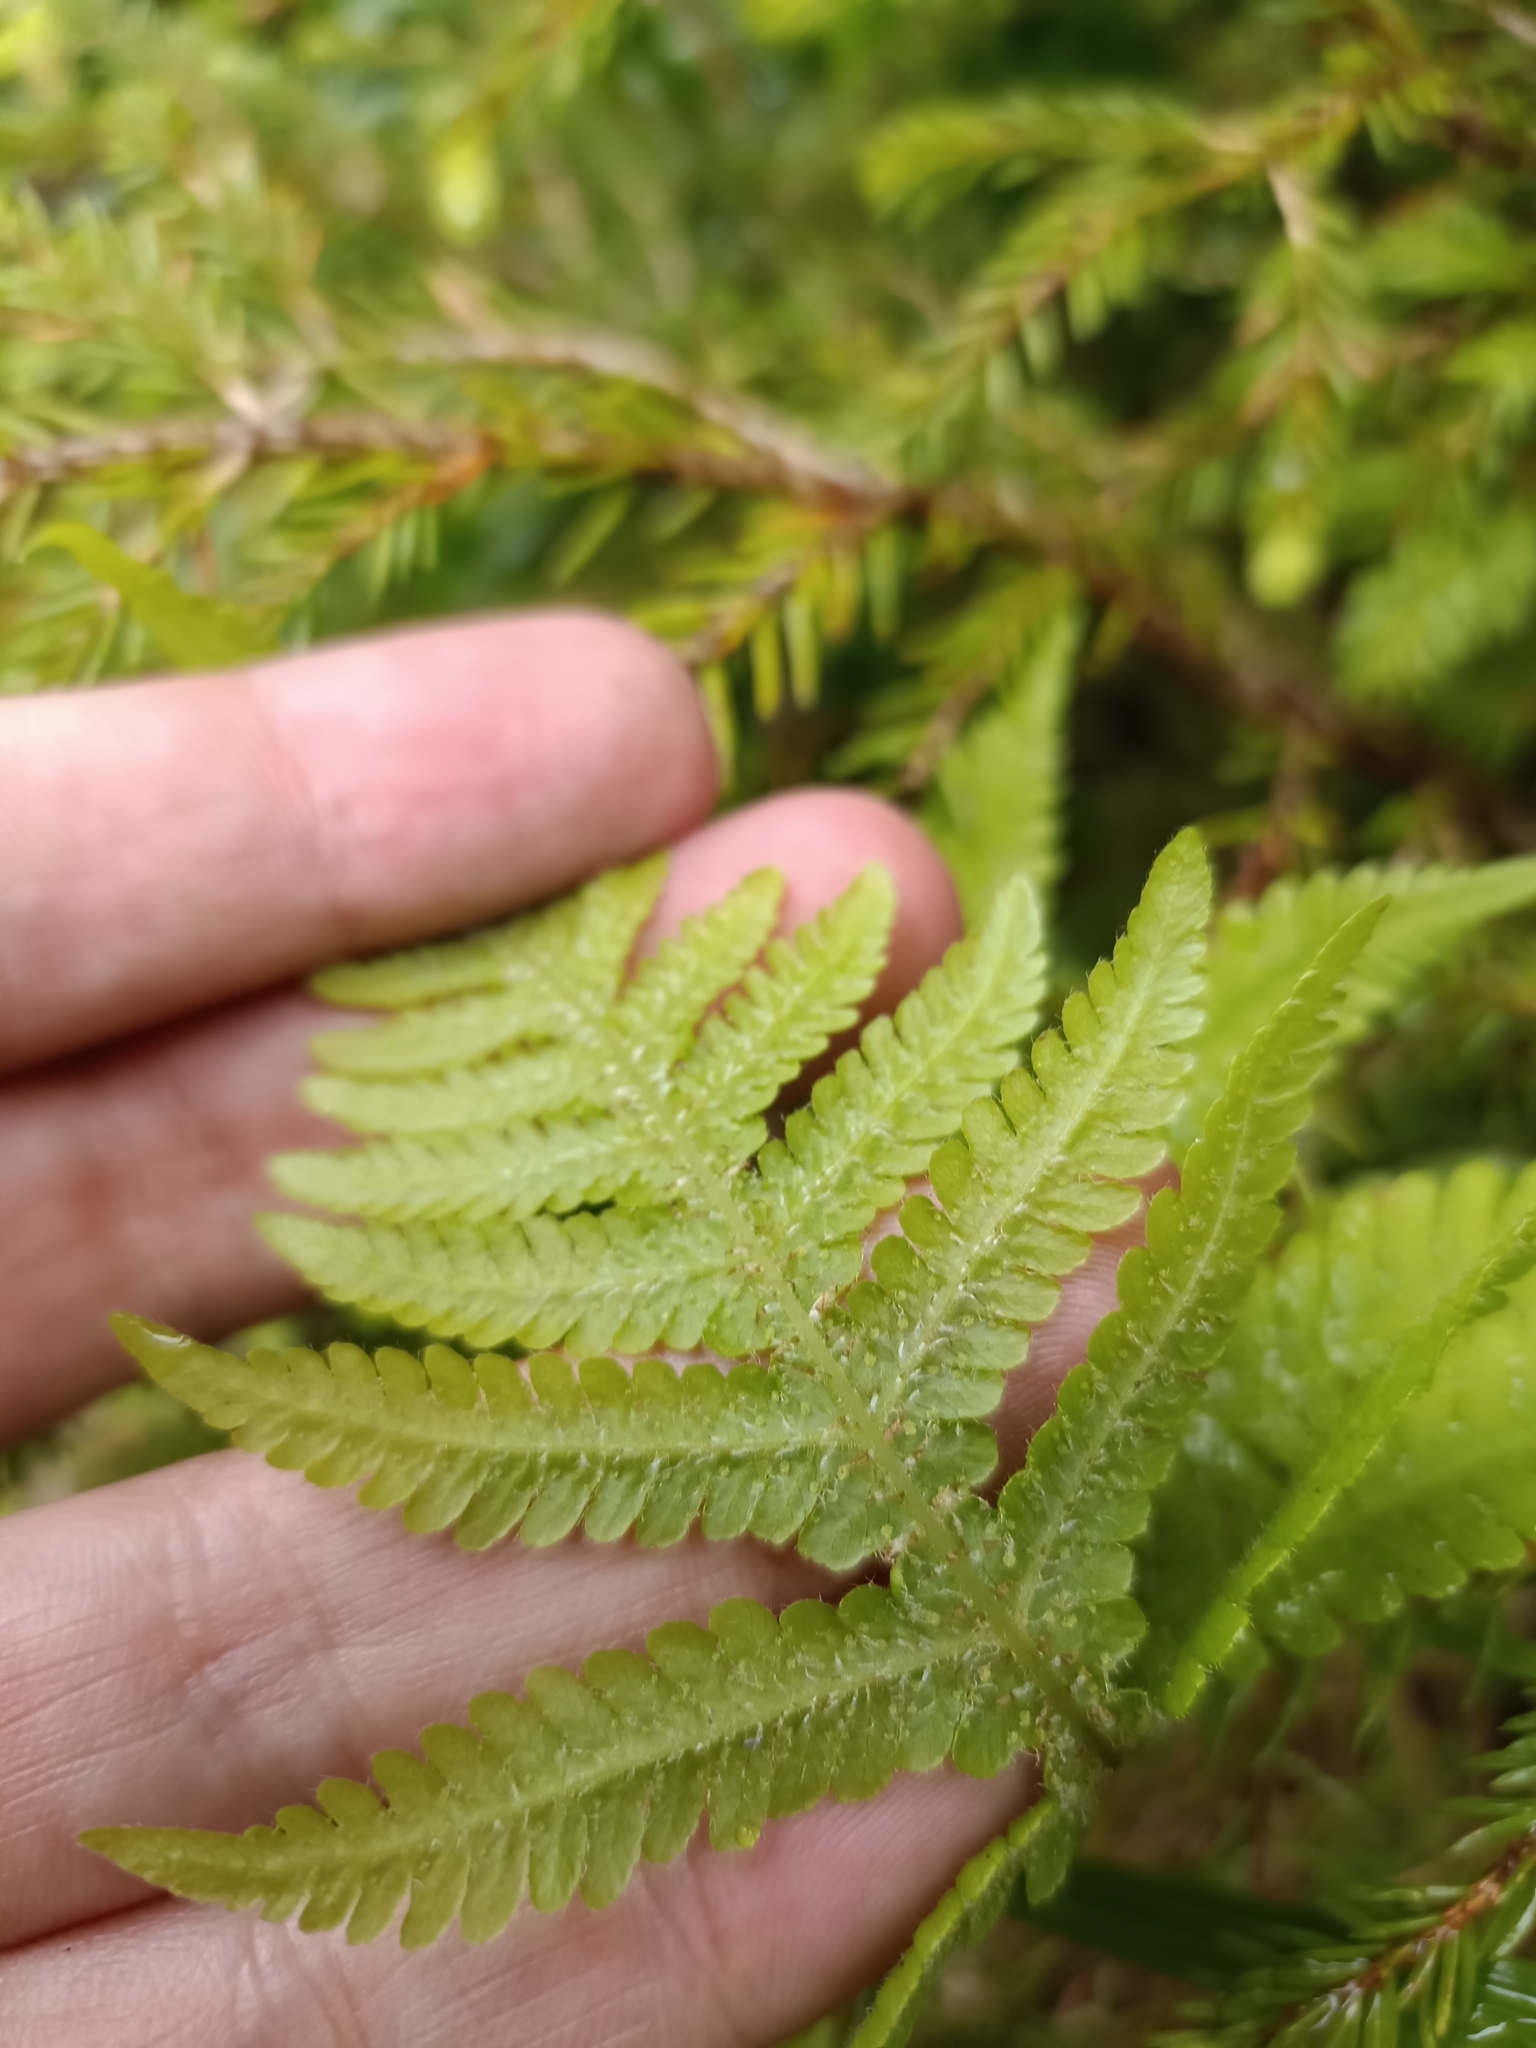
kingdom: Plantae
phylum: Tracheophyta
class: Polypodiopsida
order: Polypodiales
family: Thelypteridaceae
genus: Phegopteris
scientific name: Phegopteris connectilis
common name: Beech fern
